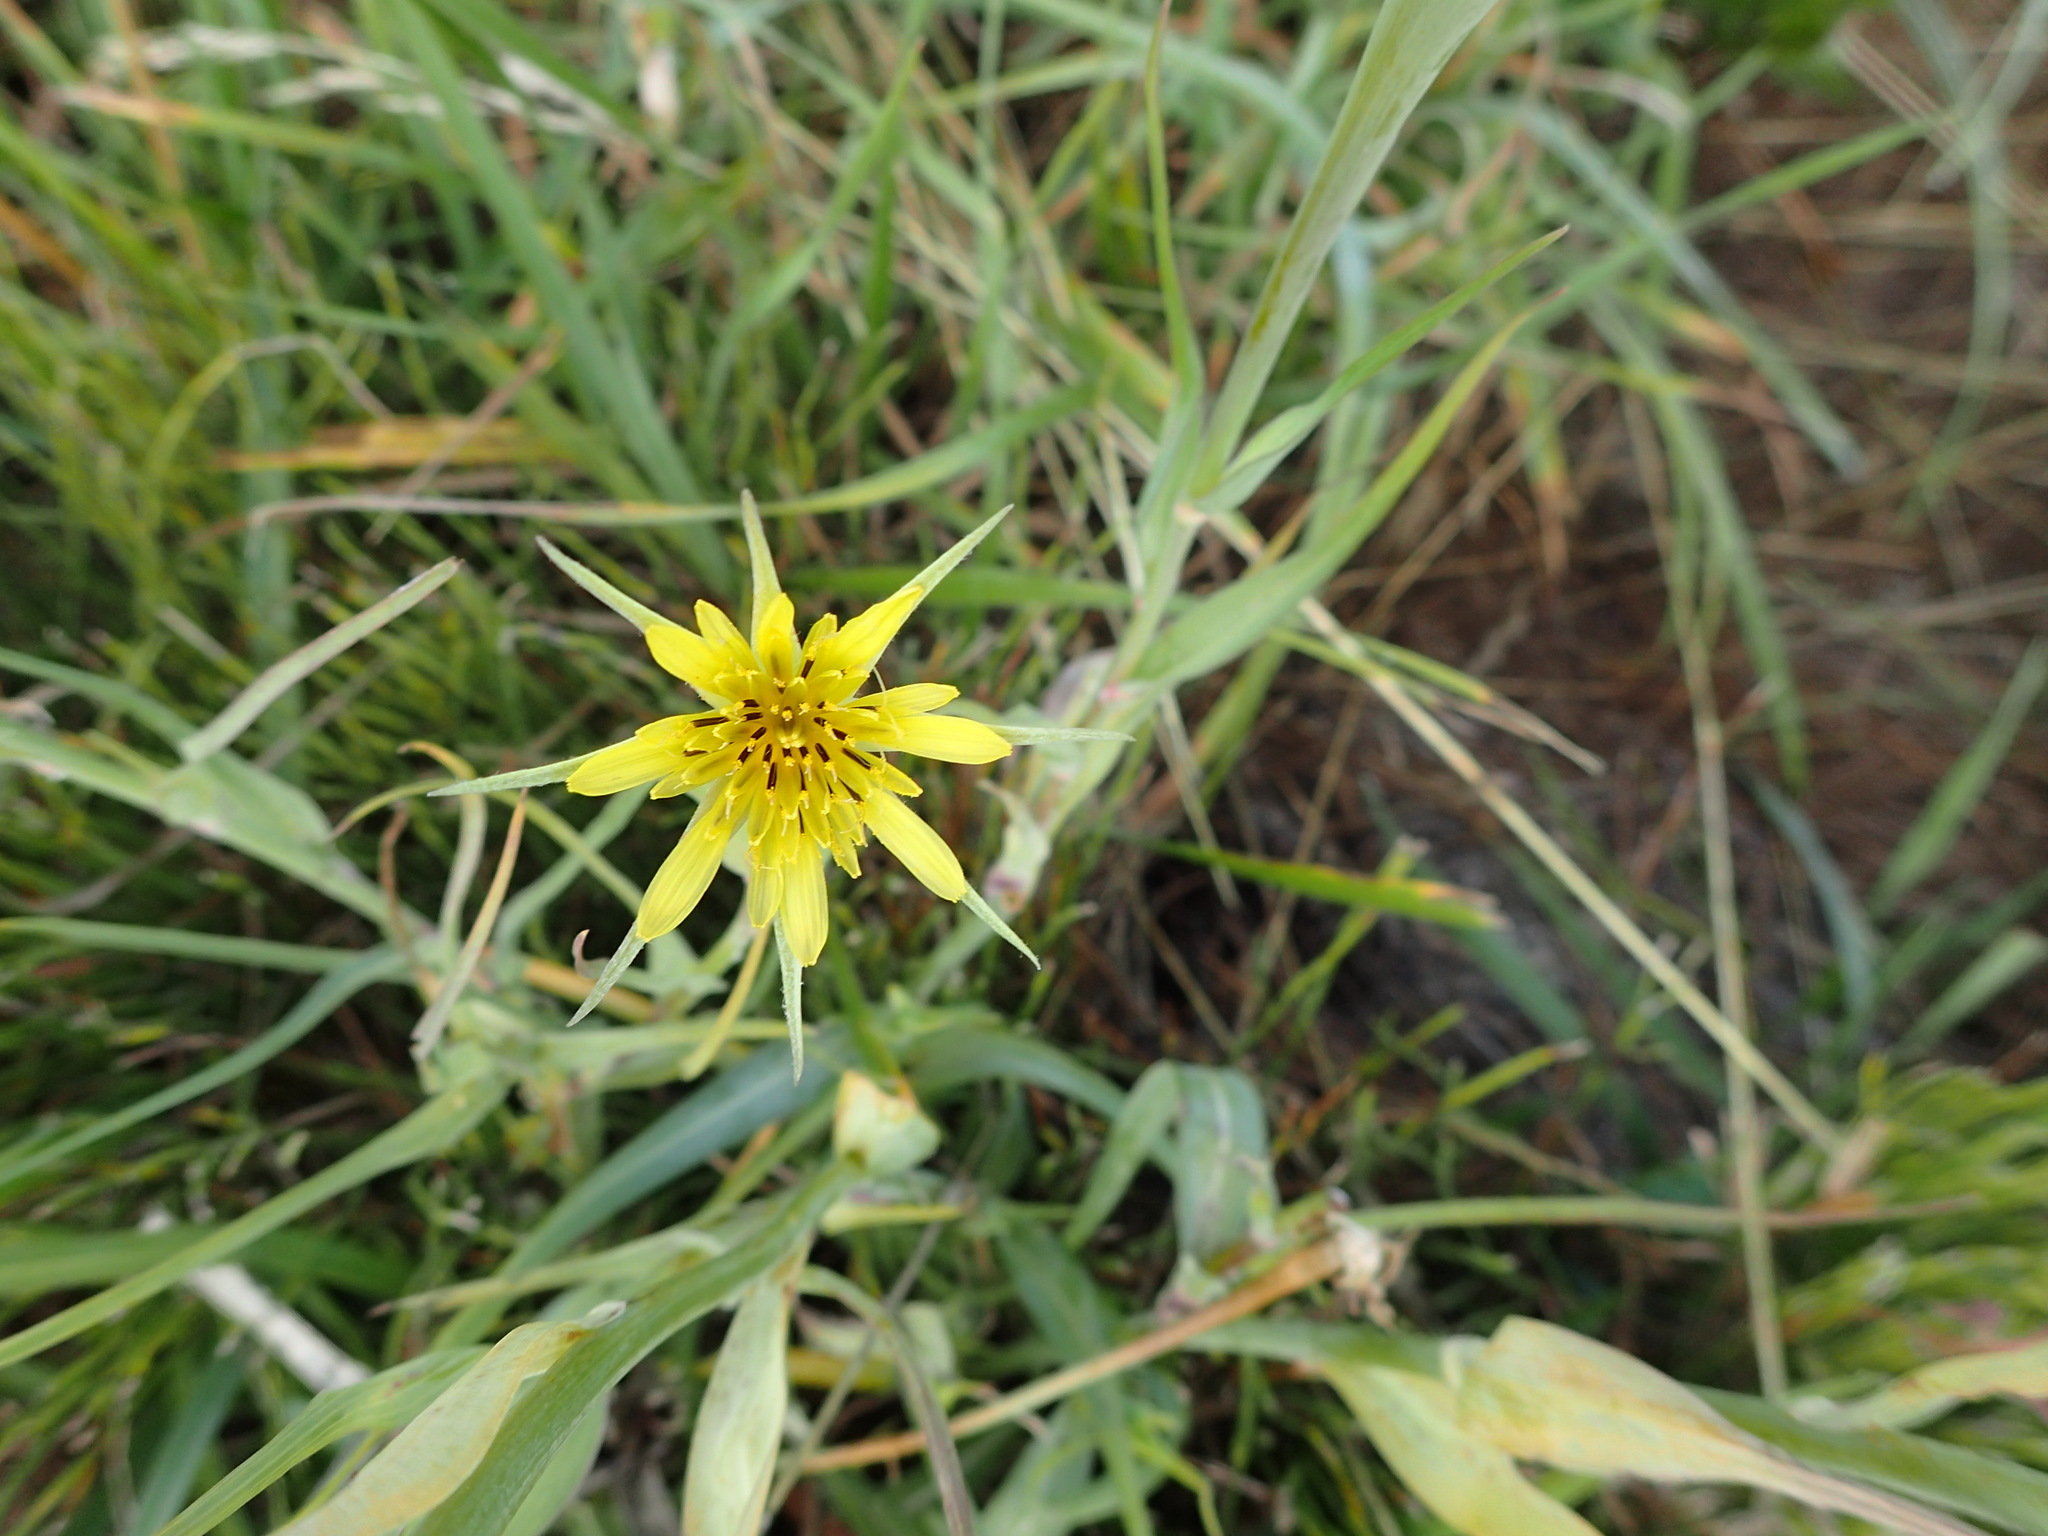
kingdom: Plantae
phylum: Tracheophyta
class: Magnoliopsida
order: Asterales
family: Asteraceae
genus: Tragopogon
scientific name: Tragopogon dubius
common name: Yellow salsify
